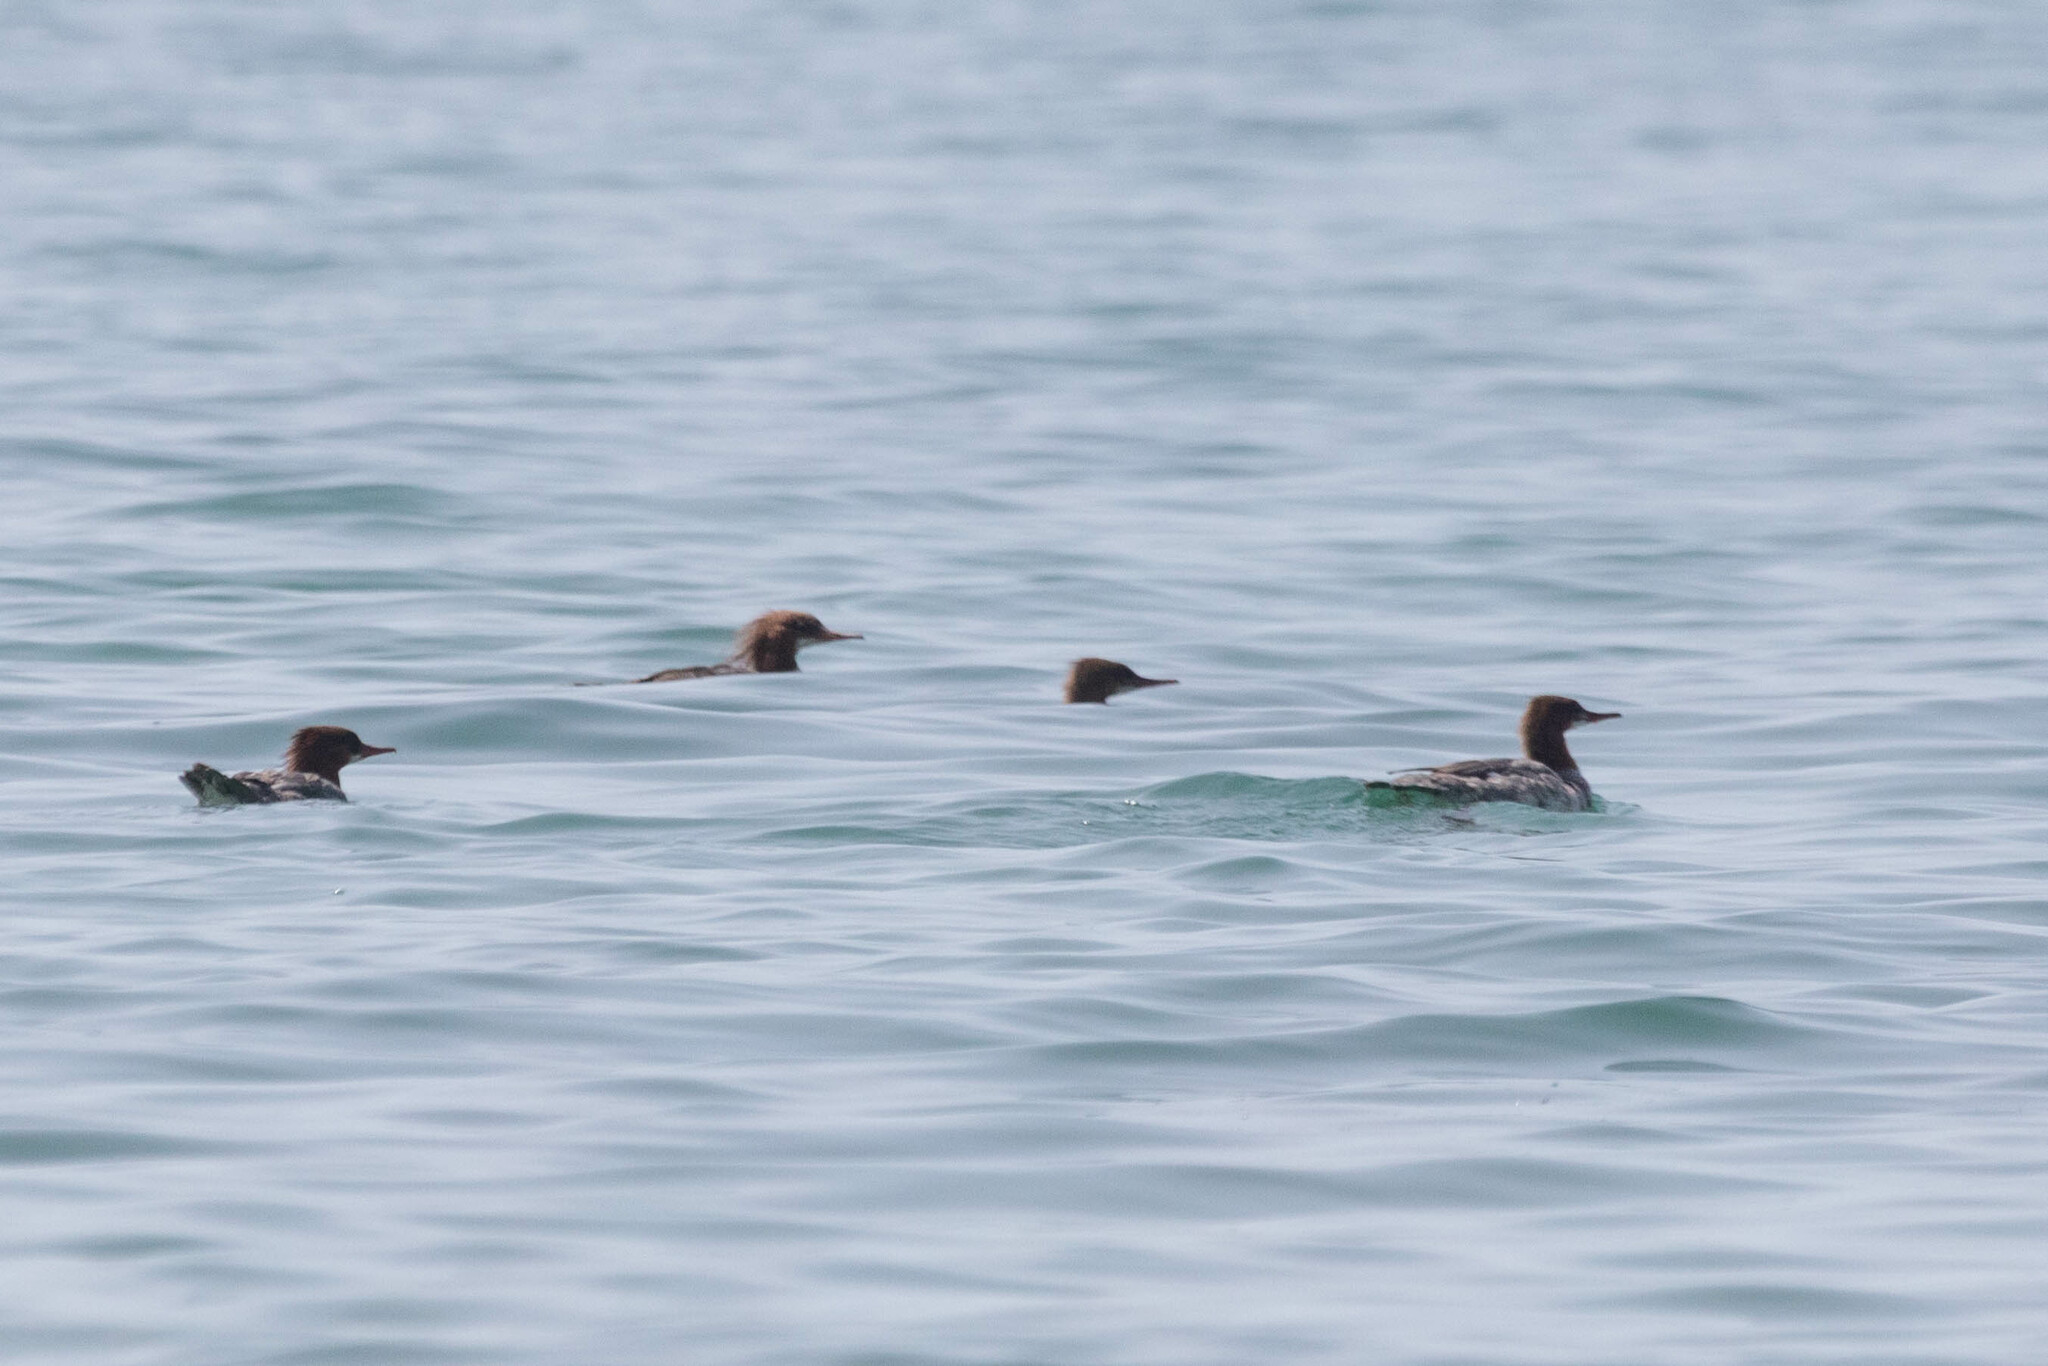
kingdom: Animalia
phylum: Chordata
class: Aves
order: Anseriformes
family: Anatidae
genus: Mergus
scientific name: Mergus merganser
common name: Common merganser
